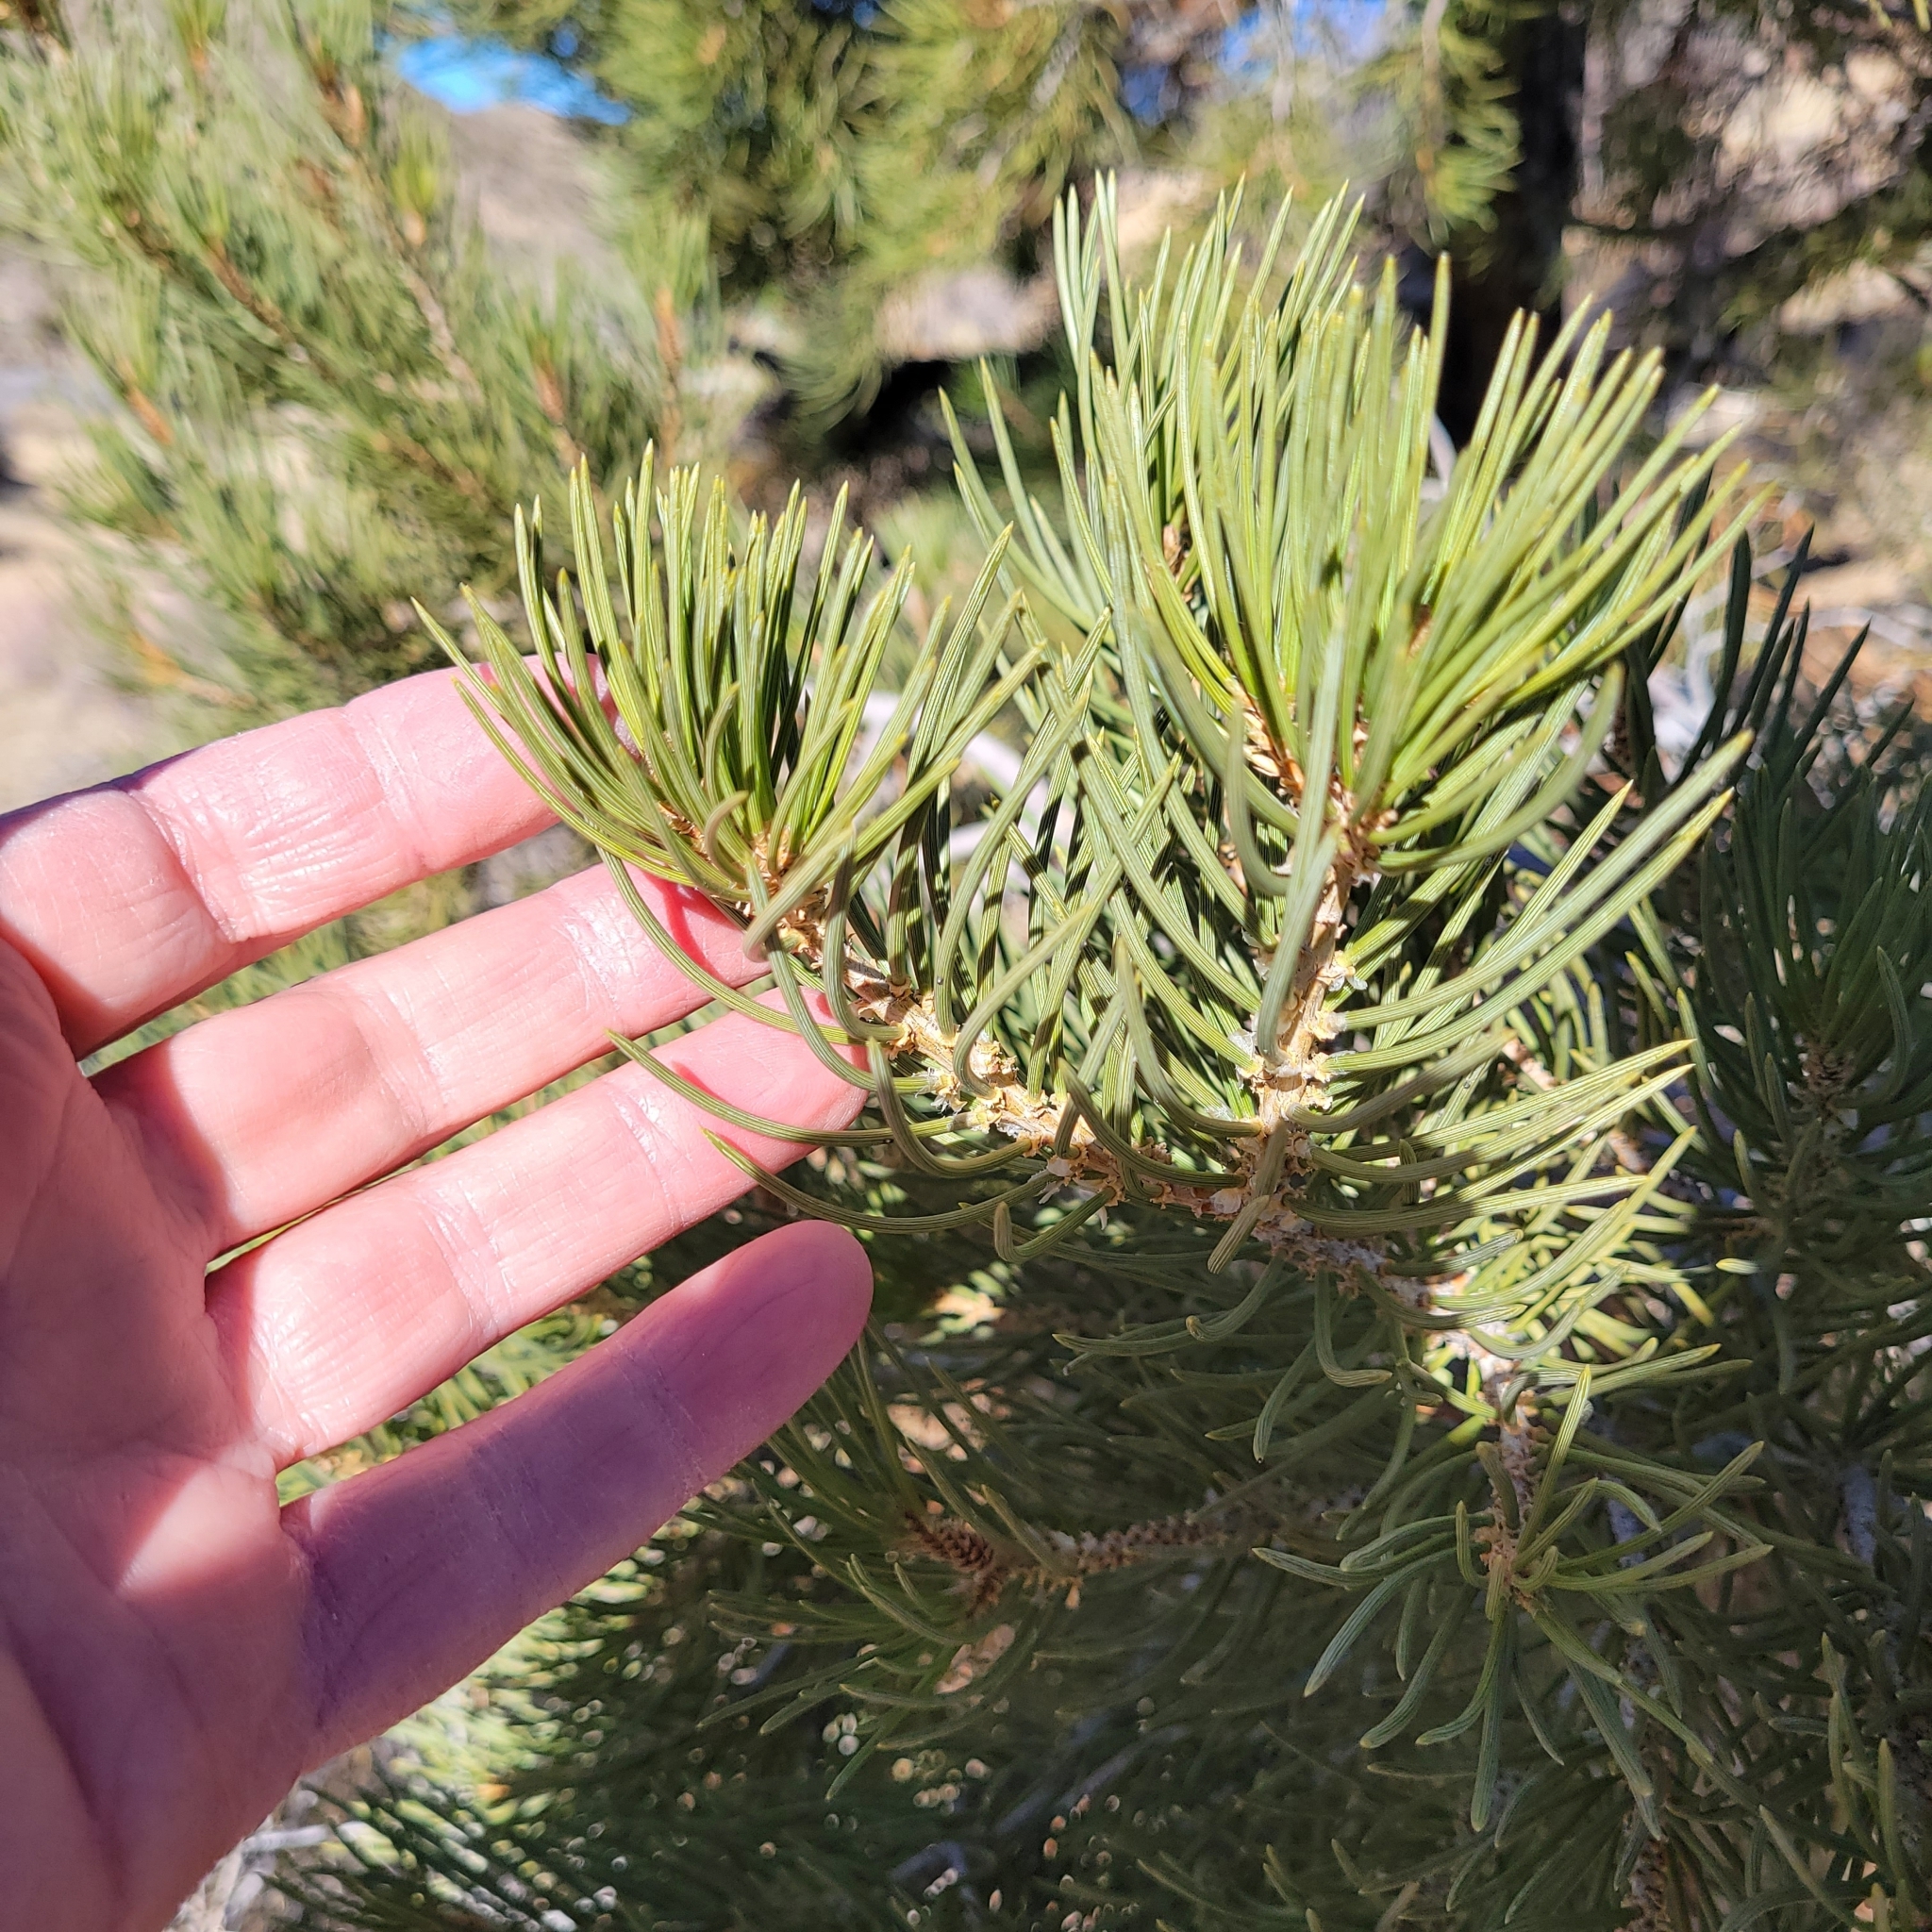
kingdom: Plantae
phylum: Tracheophyta
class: Pinopsida
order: Pinales
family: Pinaceae
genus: Pinus
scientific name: Pinus monophylla
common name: One-leaved nut pine
